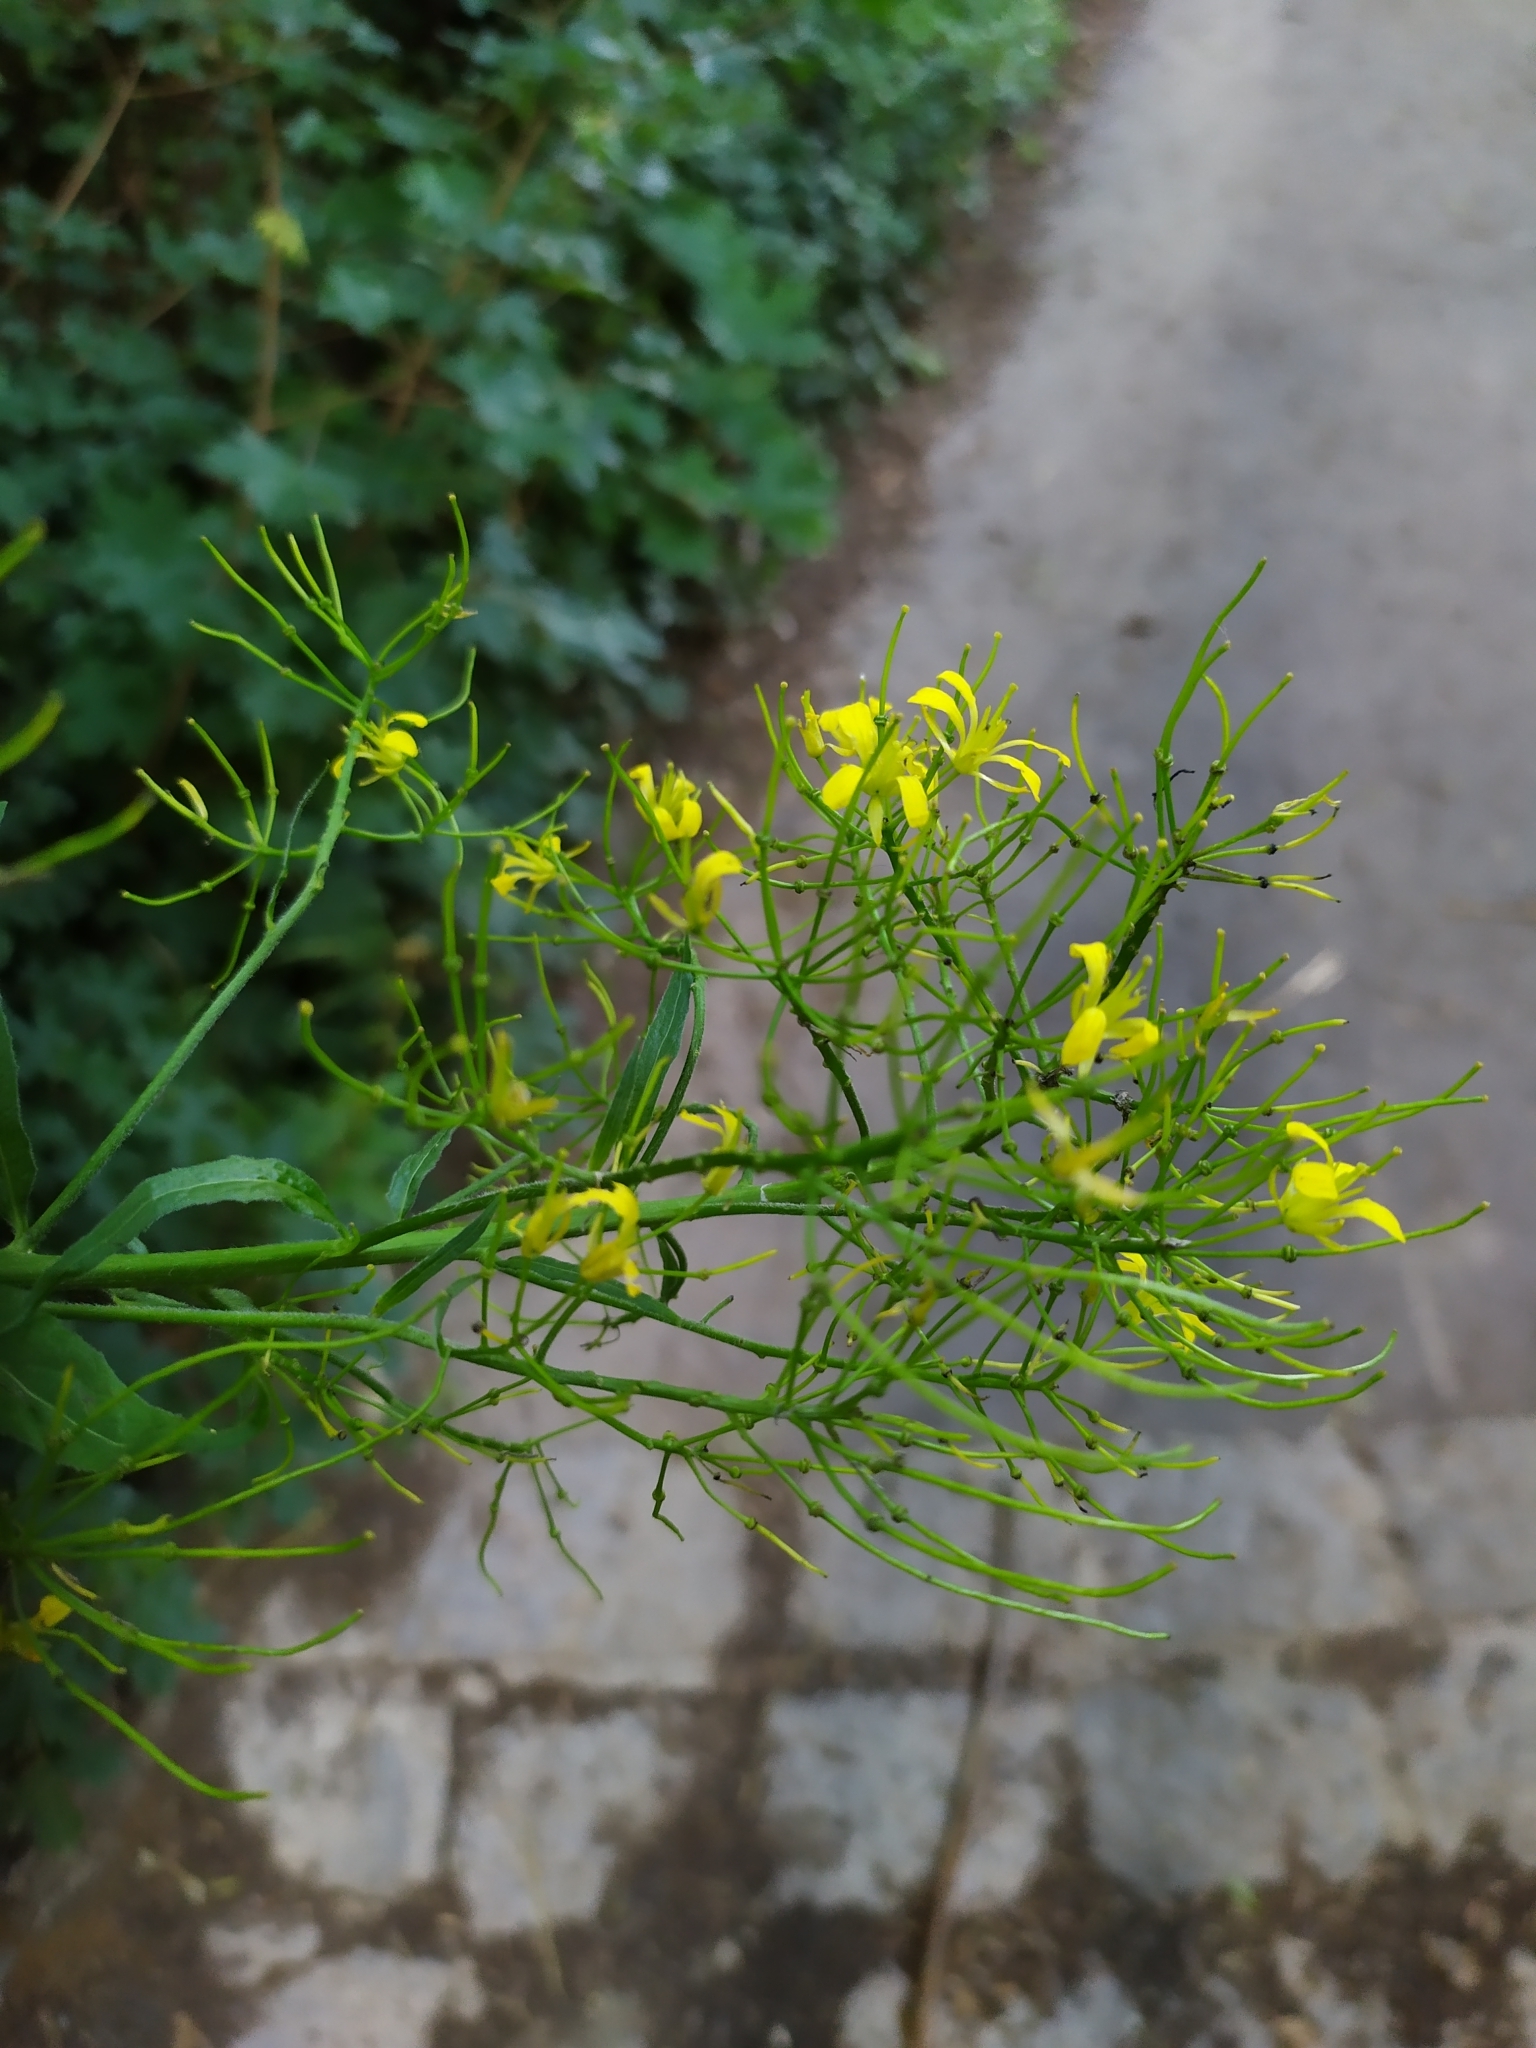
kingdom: Plantae
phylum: Tracheophyta
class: Magnoliopsida
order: Brassicales
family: Brassicaceae
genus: Sisymbrium
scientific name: Sisymbrium strictissimum
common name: Perennial rocket
